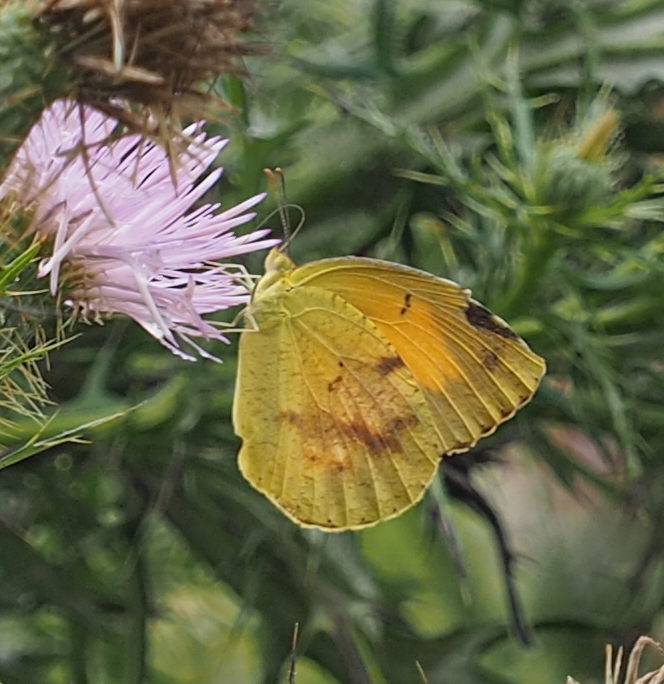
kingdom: Animalia
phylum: Arthropoda
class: Insecta
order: Lepidoptera
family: Pieridae
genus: Abaeis
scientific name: Abaeis nicippe
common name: Sleepy orange
